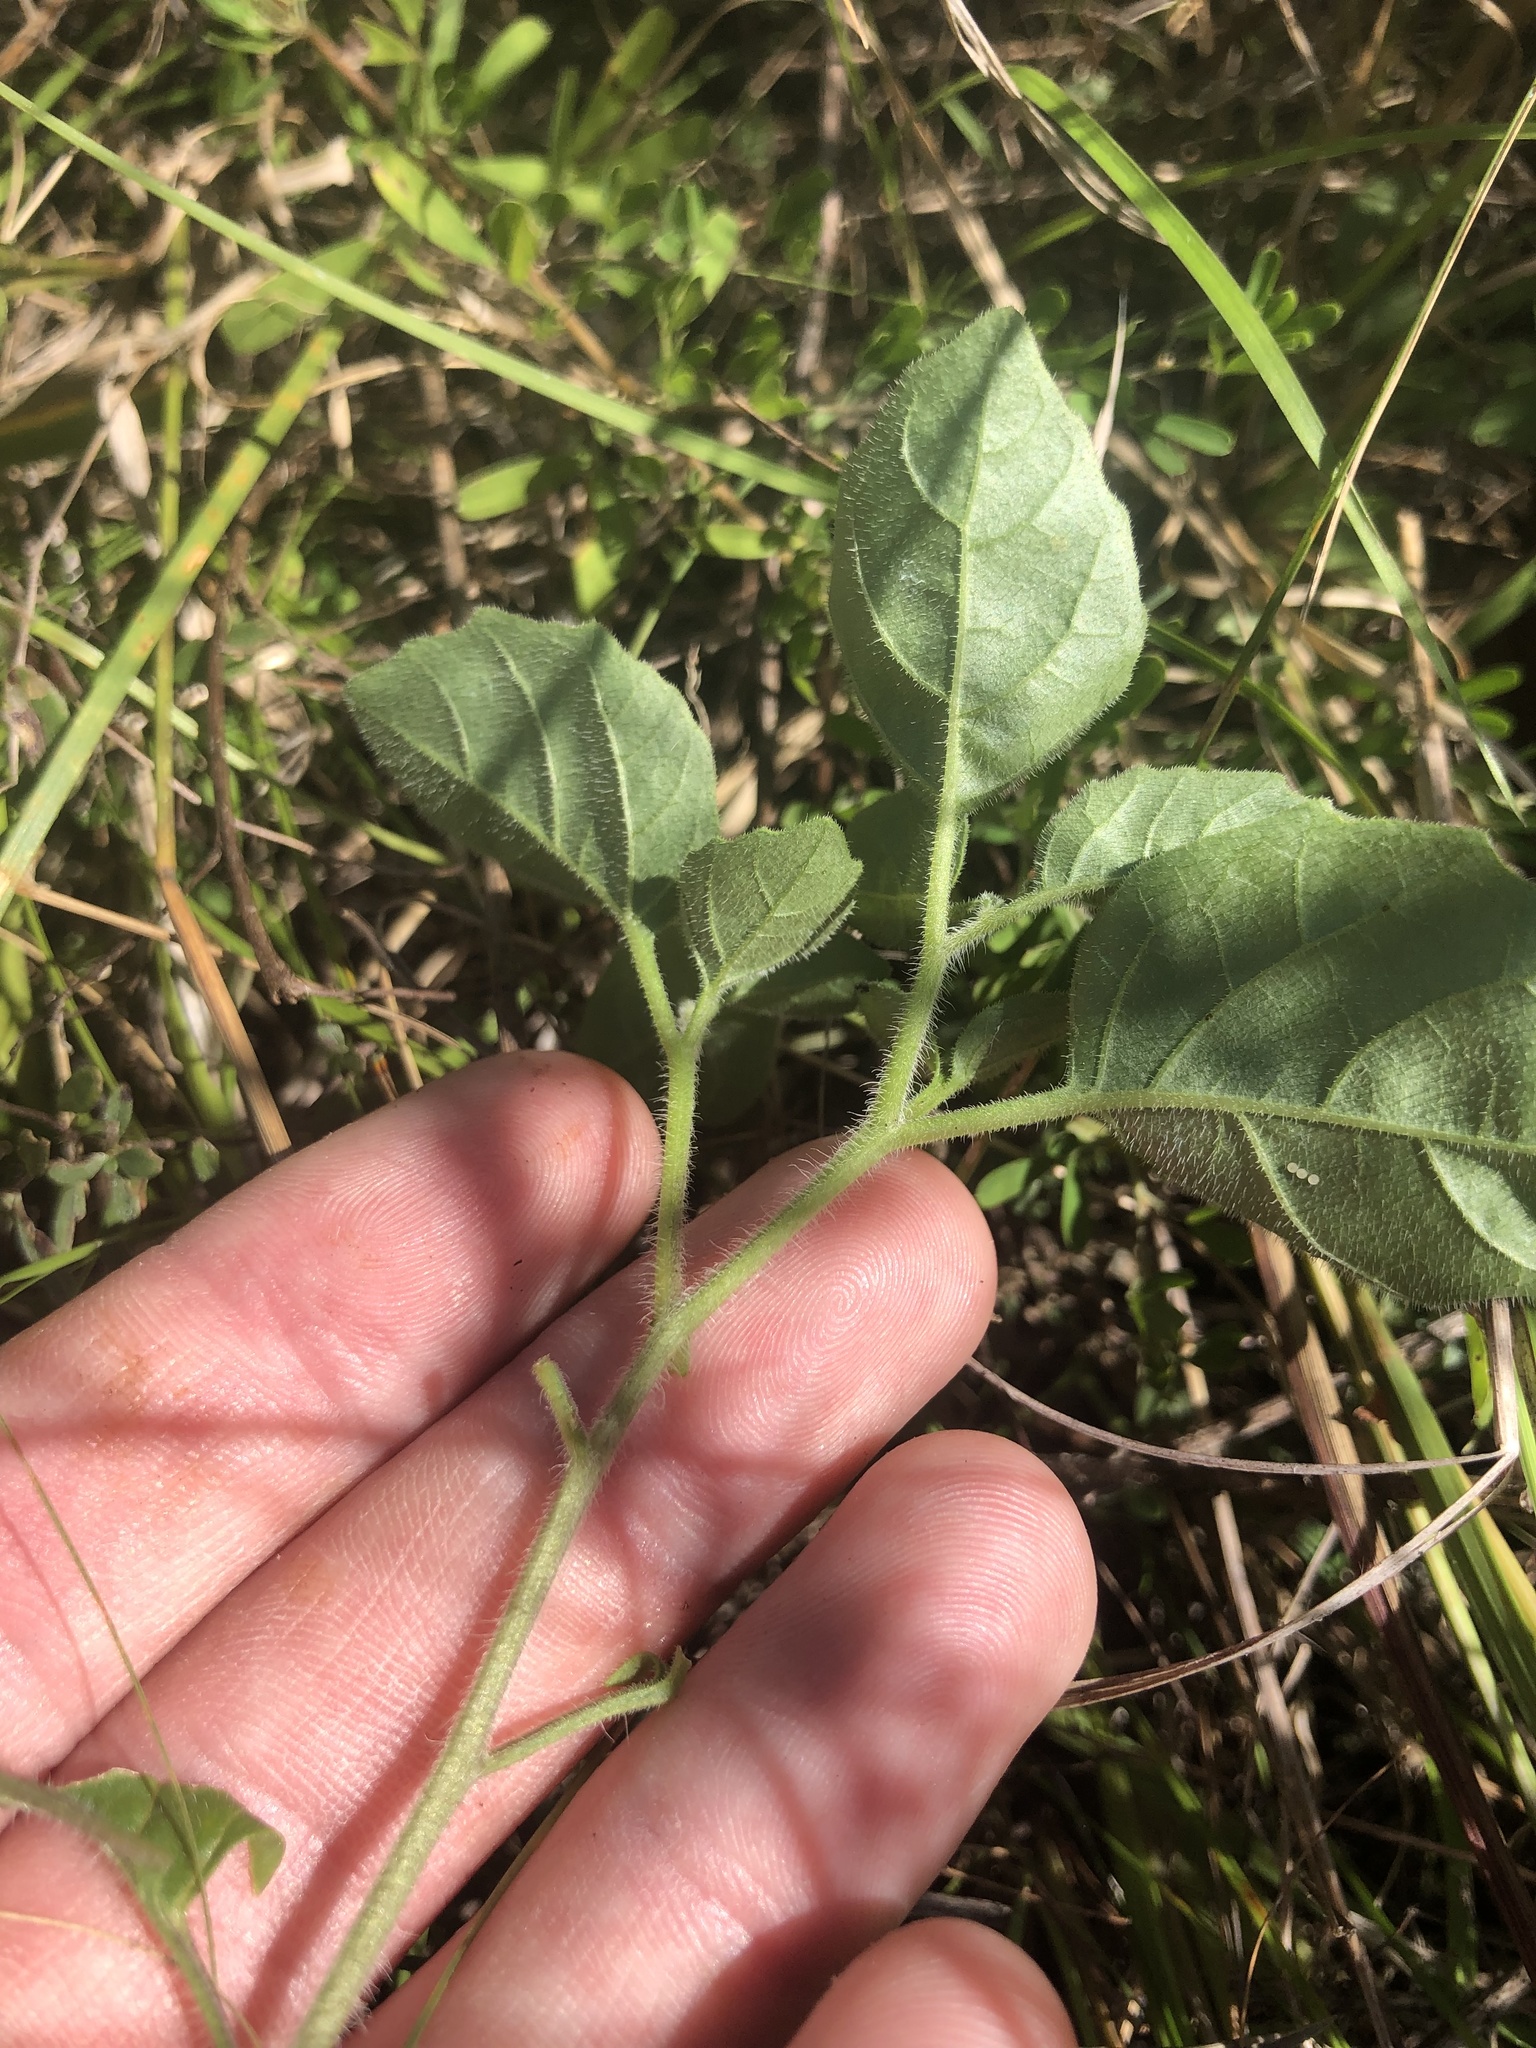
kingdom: Plantae
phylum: Tracheophyta
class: Magnoliopsida
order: Solanales
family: Solanaceae
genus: Physalis
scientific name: Physalis virginiana
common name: Virginia ground-cherry
